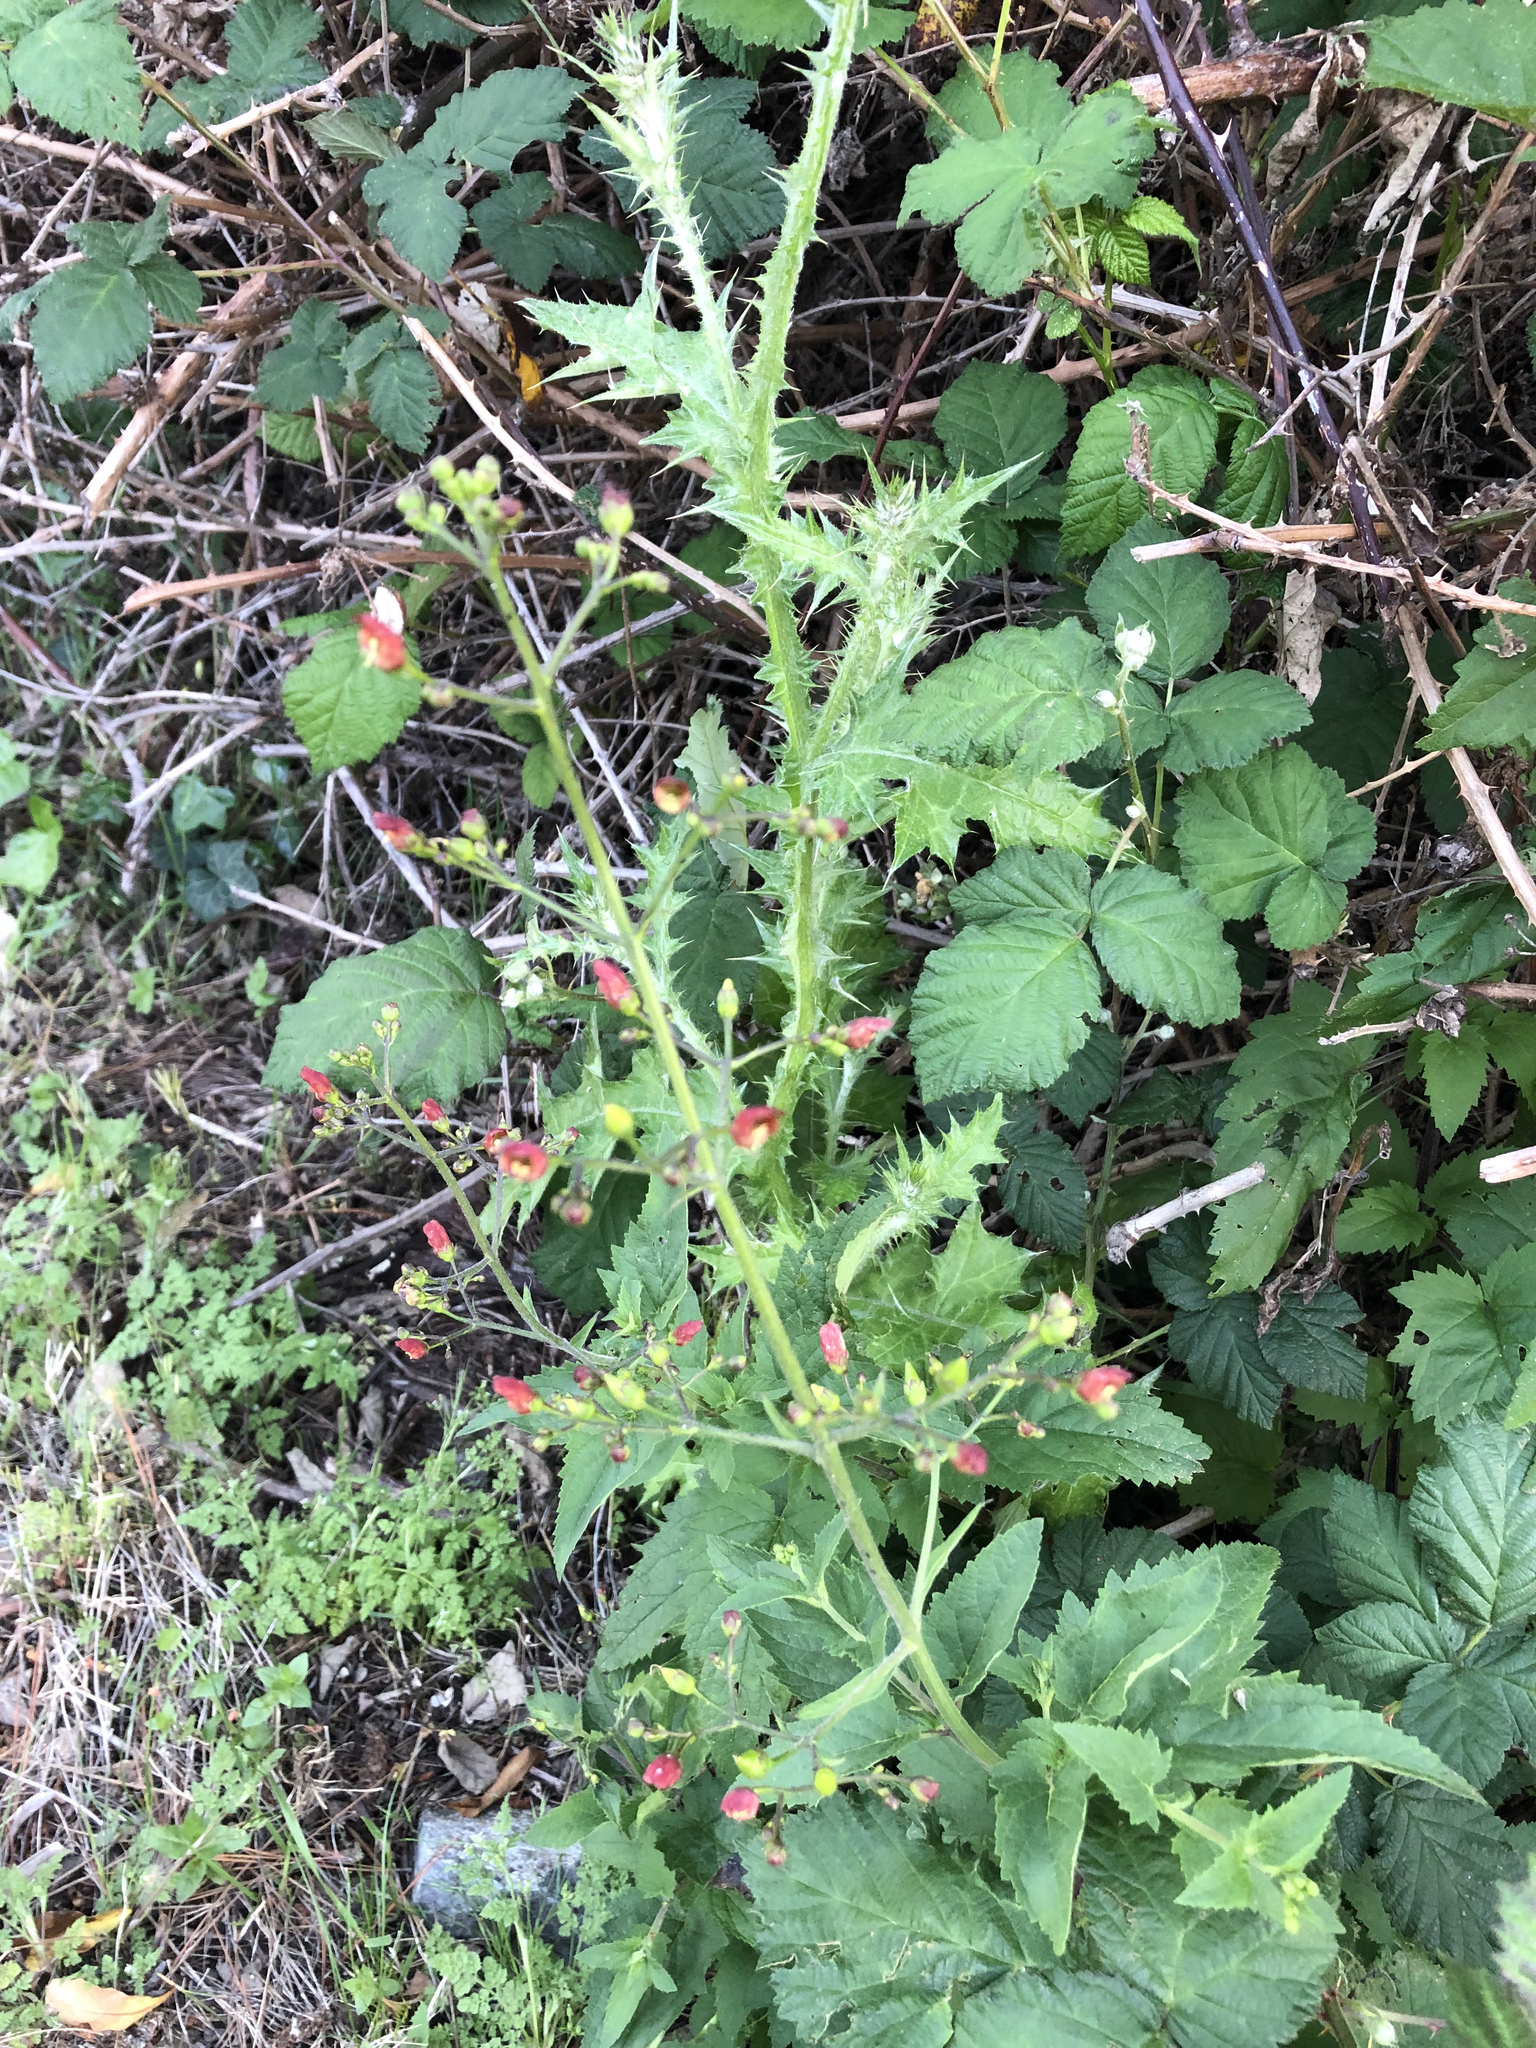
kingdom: Plantae
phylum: Tracheophyta
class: Magnoliopsida
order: Lamiales
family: Scrophulariaceae
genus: Scrophularia
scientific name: Scrophularia californica
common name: California figwort
